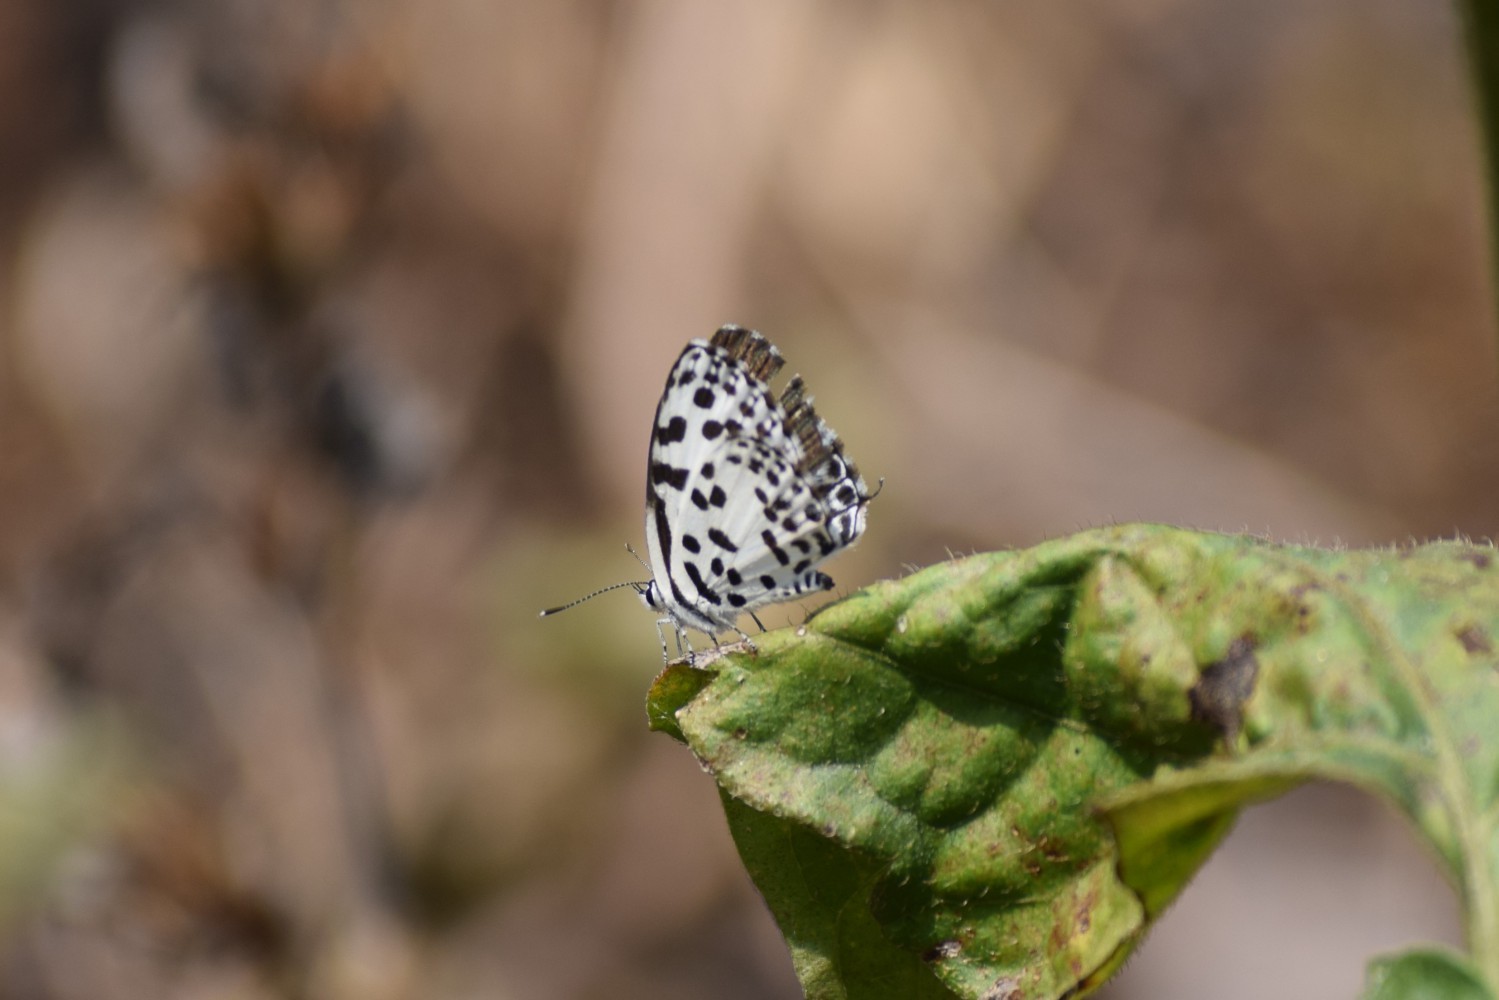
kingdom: Animalia
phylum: Arthropoda
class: Insecta
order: Lepidoptera
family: Lycaenidae
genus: Castalius
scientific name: Castalius rosimon
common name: Common pierrot
